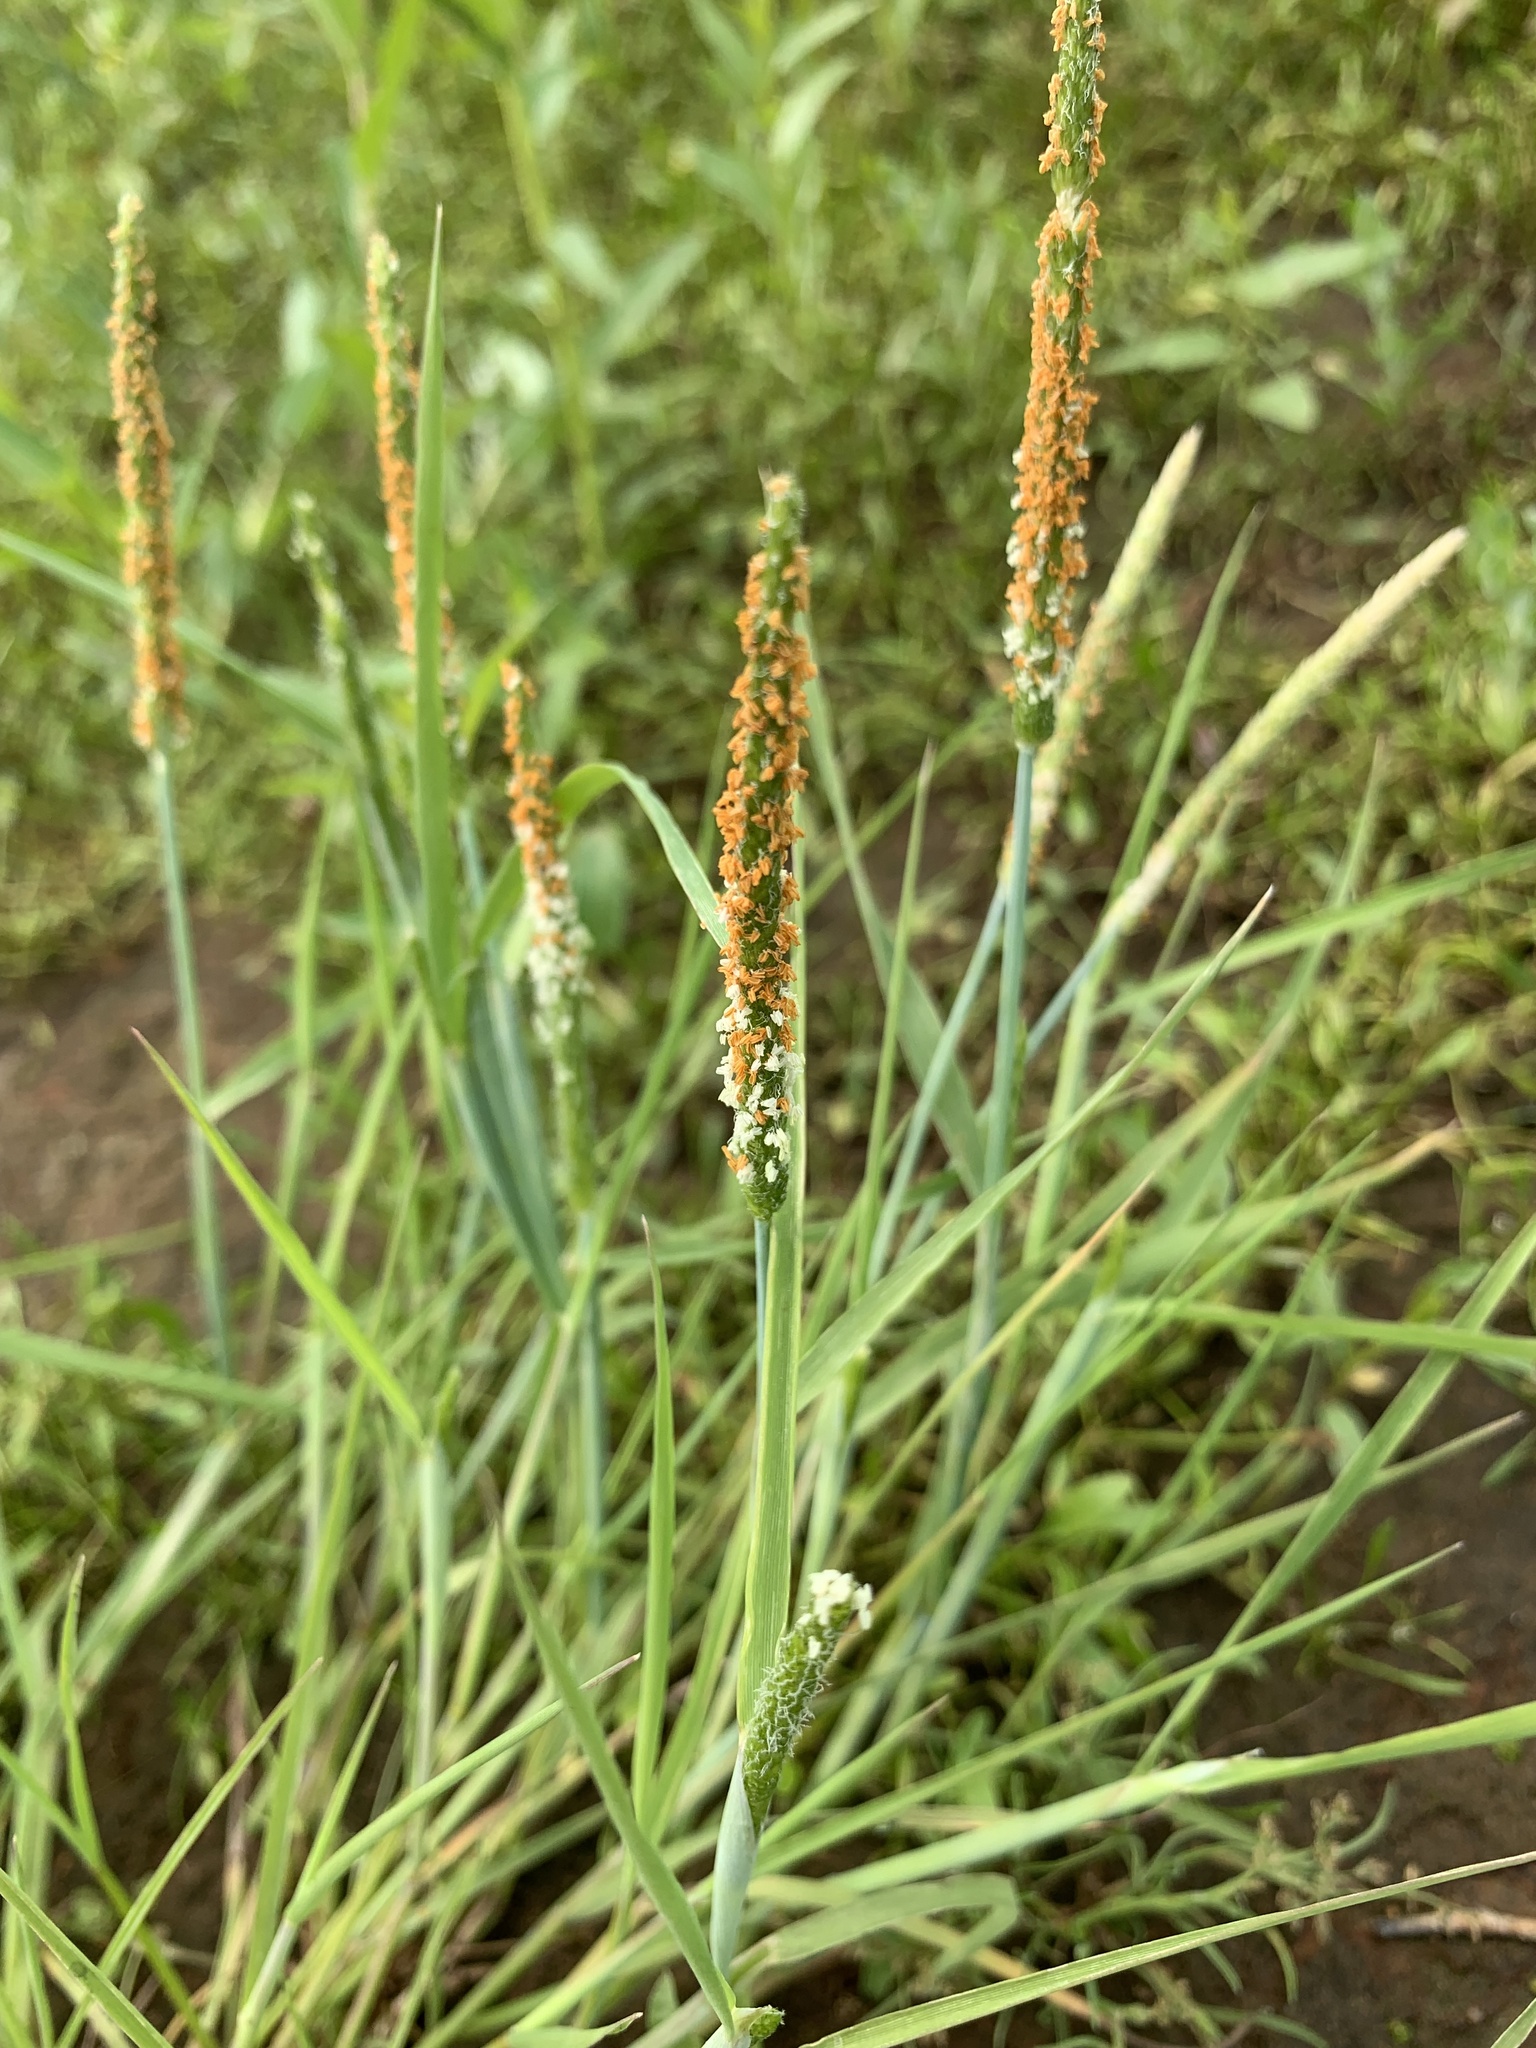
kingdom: Plantae
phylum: Tracheophyta
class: Liliopsida
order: Poales
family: Poaceae
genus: Alopecurus
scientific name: Alopecurus aequalis
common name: Orange foxtail
